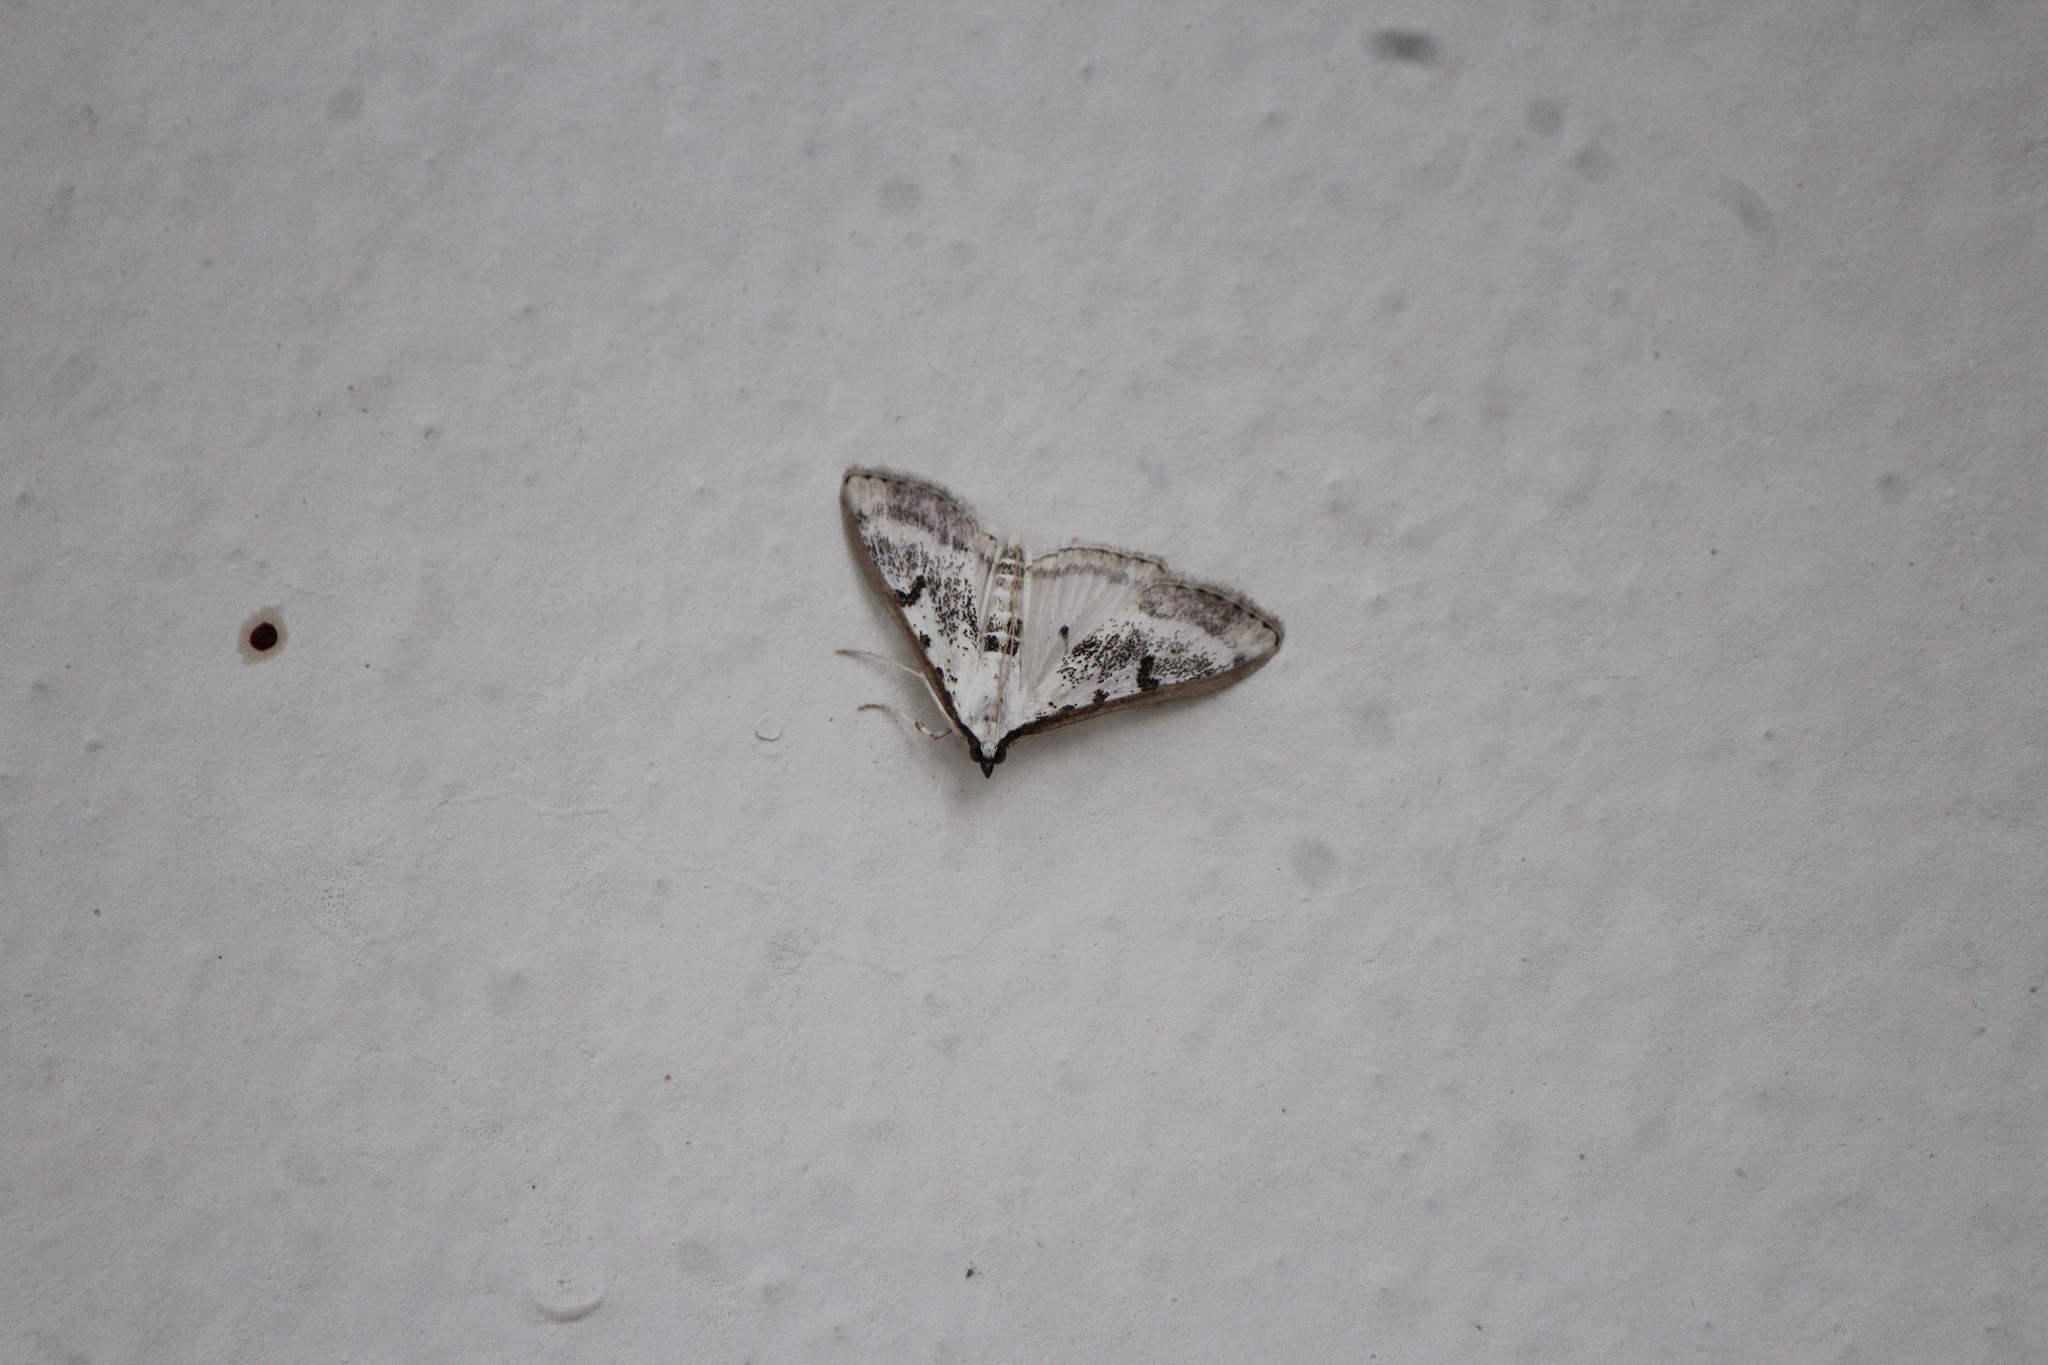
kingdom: Animalia
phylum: Arthropoda
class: Insecta
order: Lepidoptera
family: Crambidae
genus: Palpita
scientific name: Palpita gracilalis
